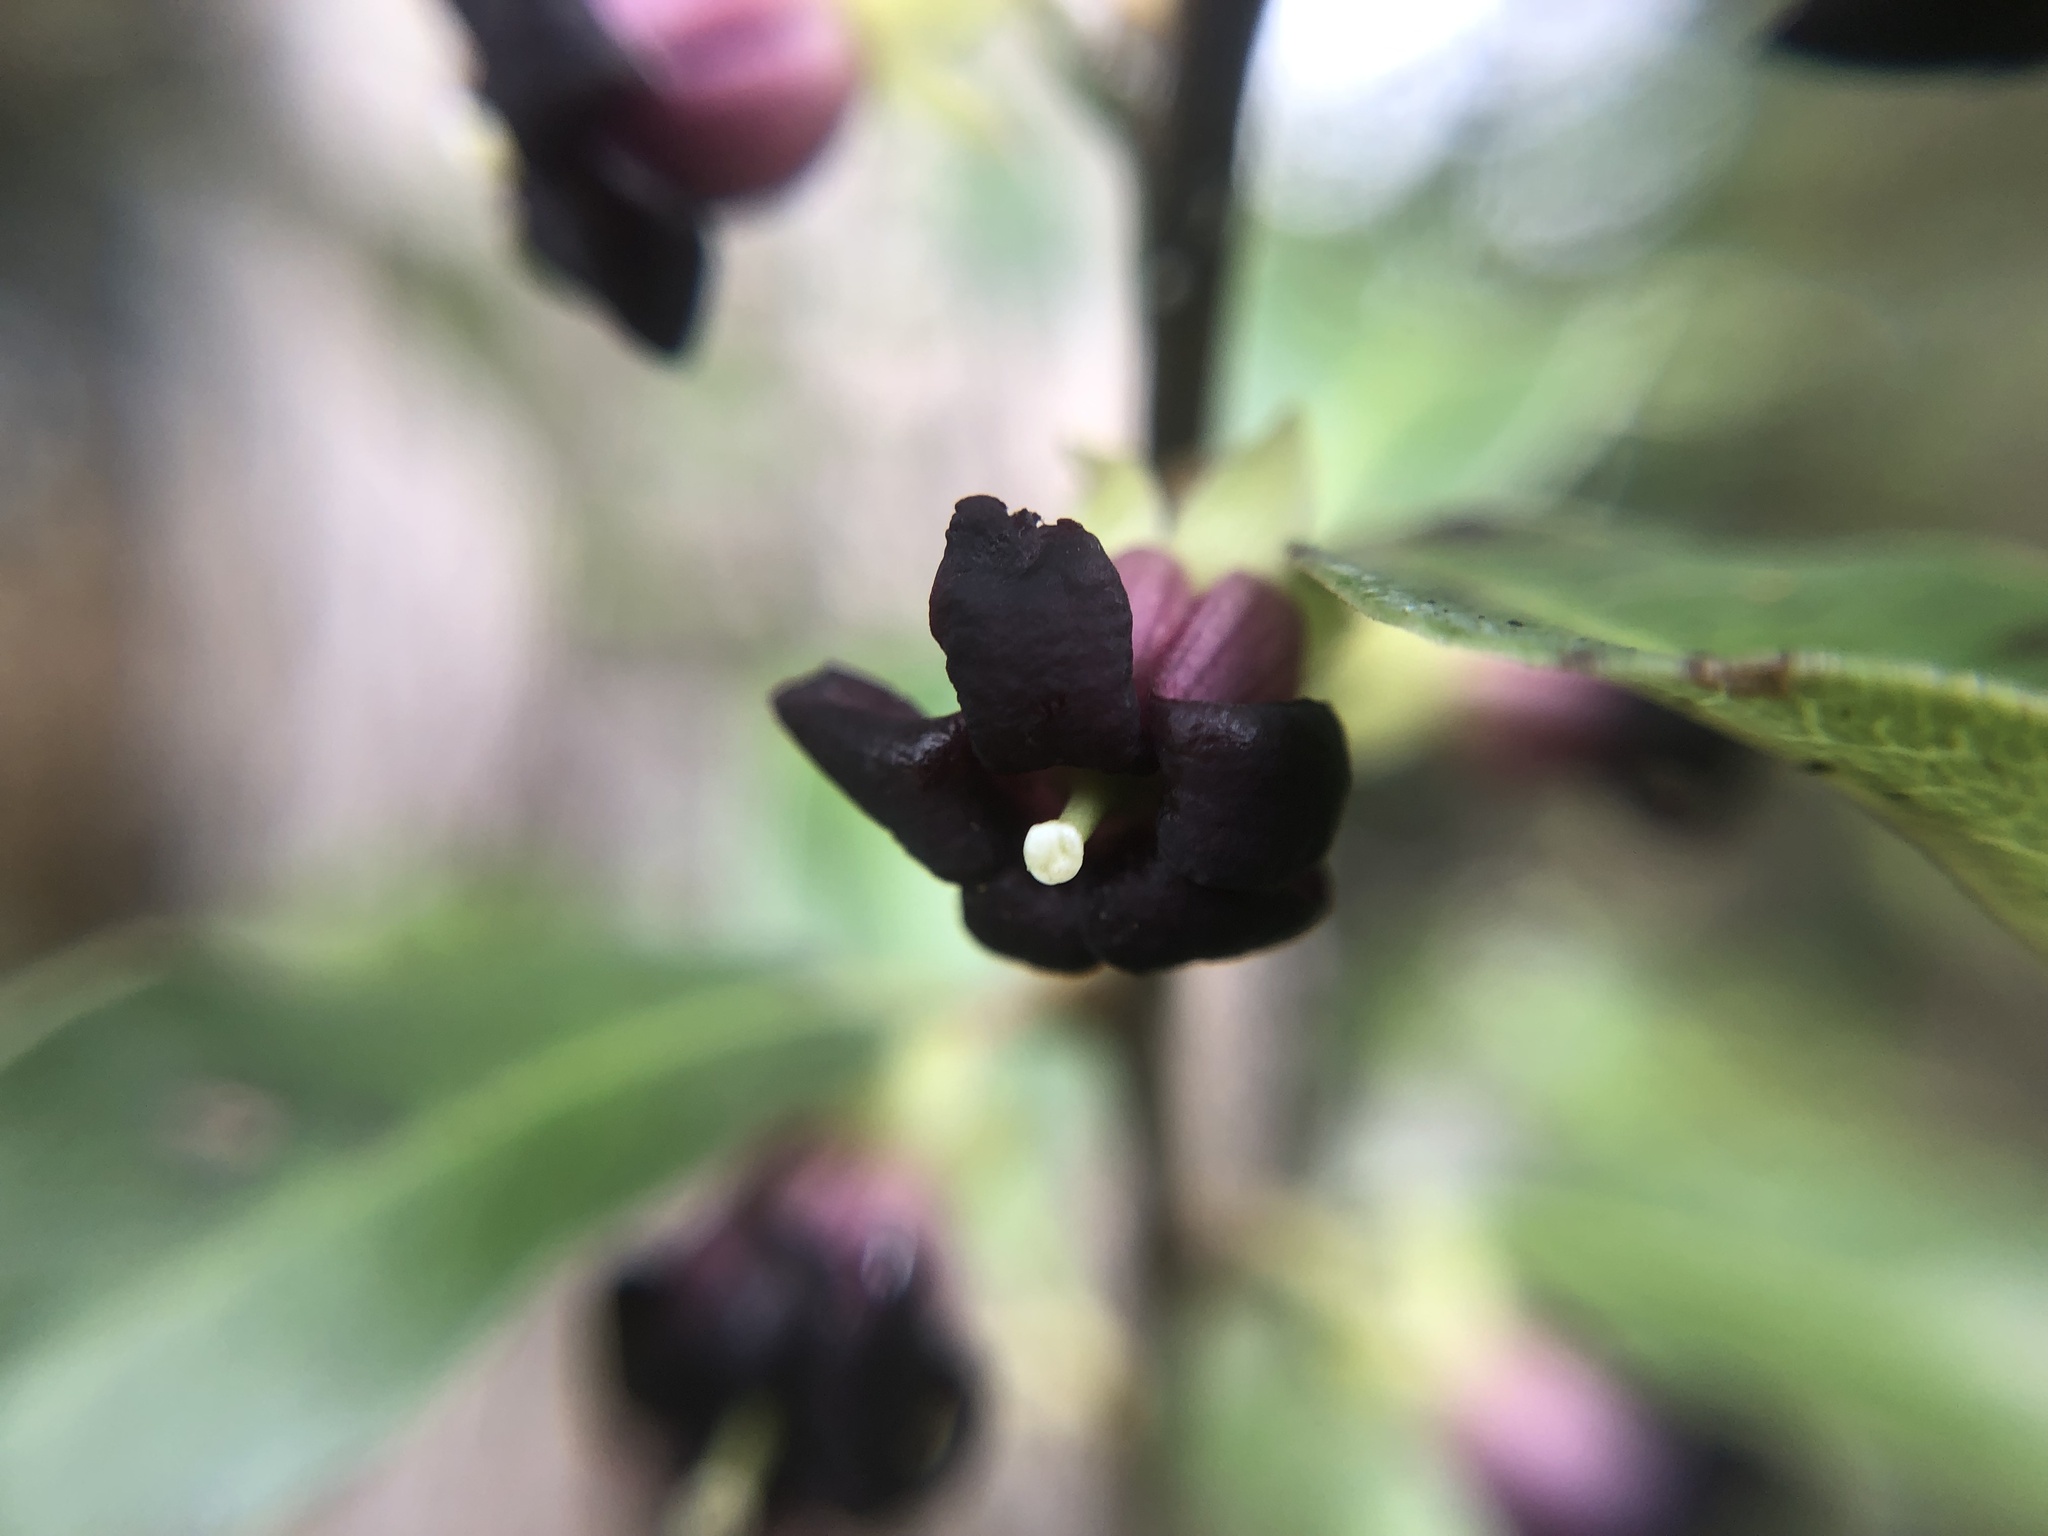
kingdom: Plantae
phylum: Tracheophyta
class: Magnoliopsida
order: Apiales
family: Pittosporaceae
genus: Pittosporum
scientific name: Pittosporum tenuifolium
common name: Kohuhu
